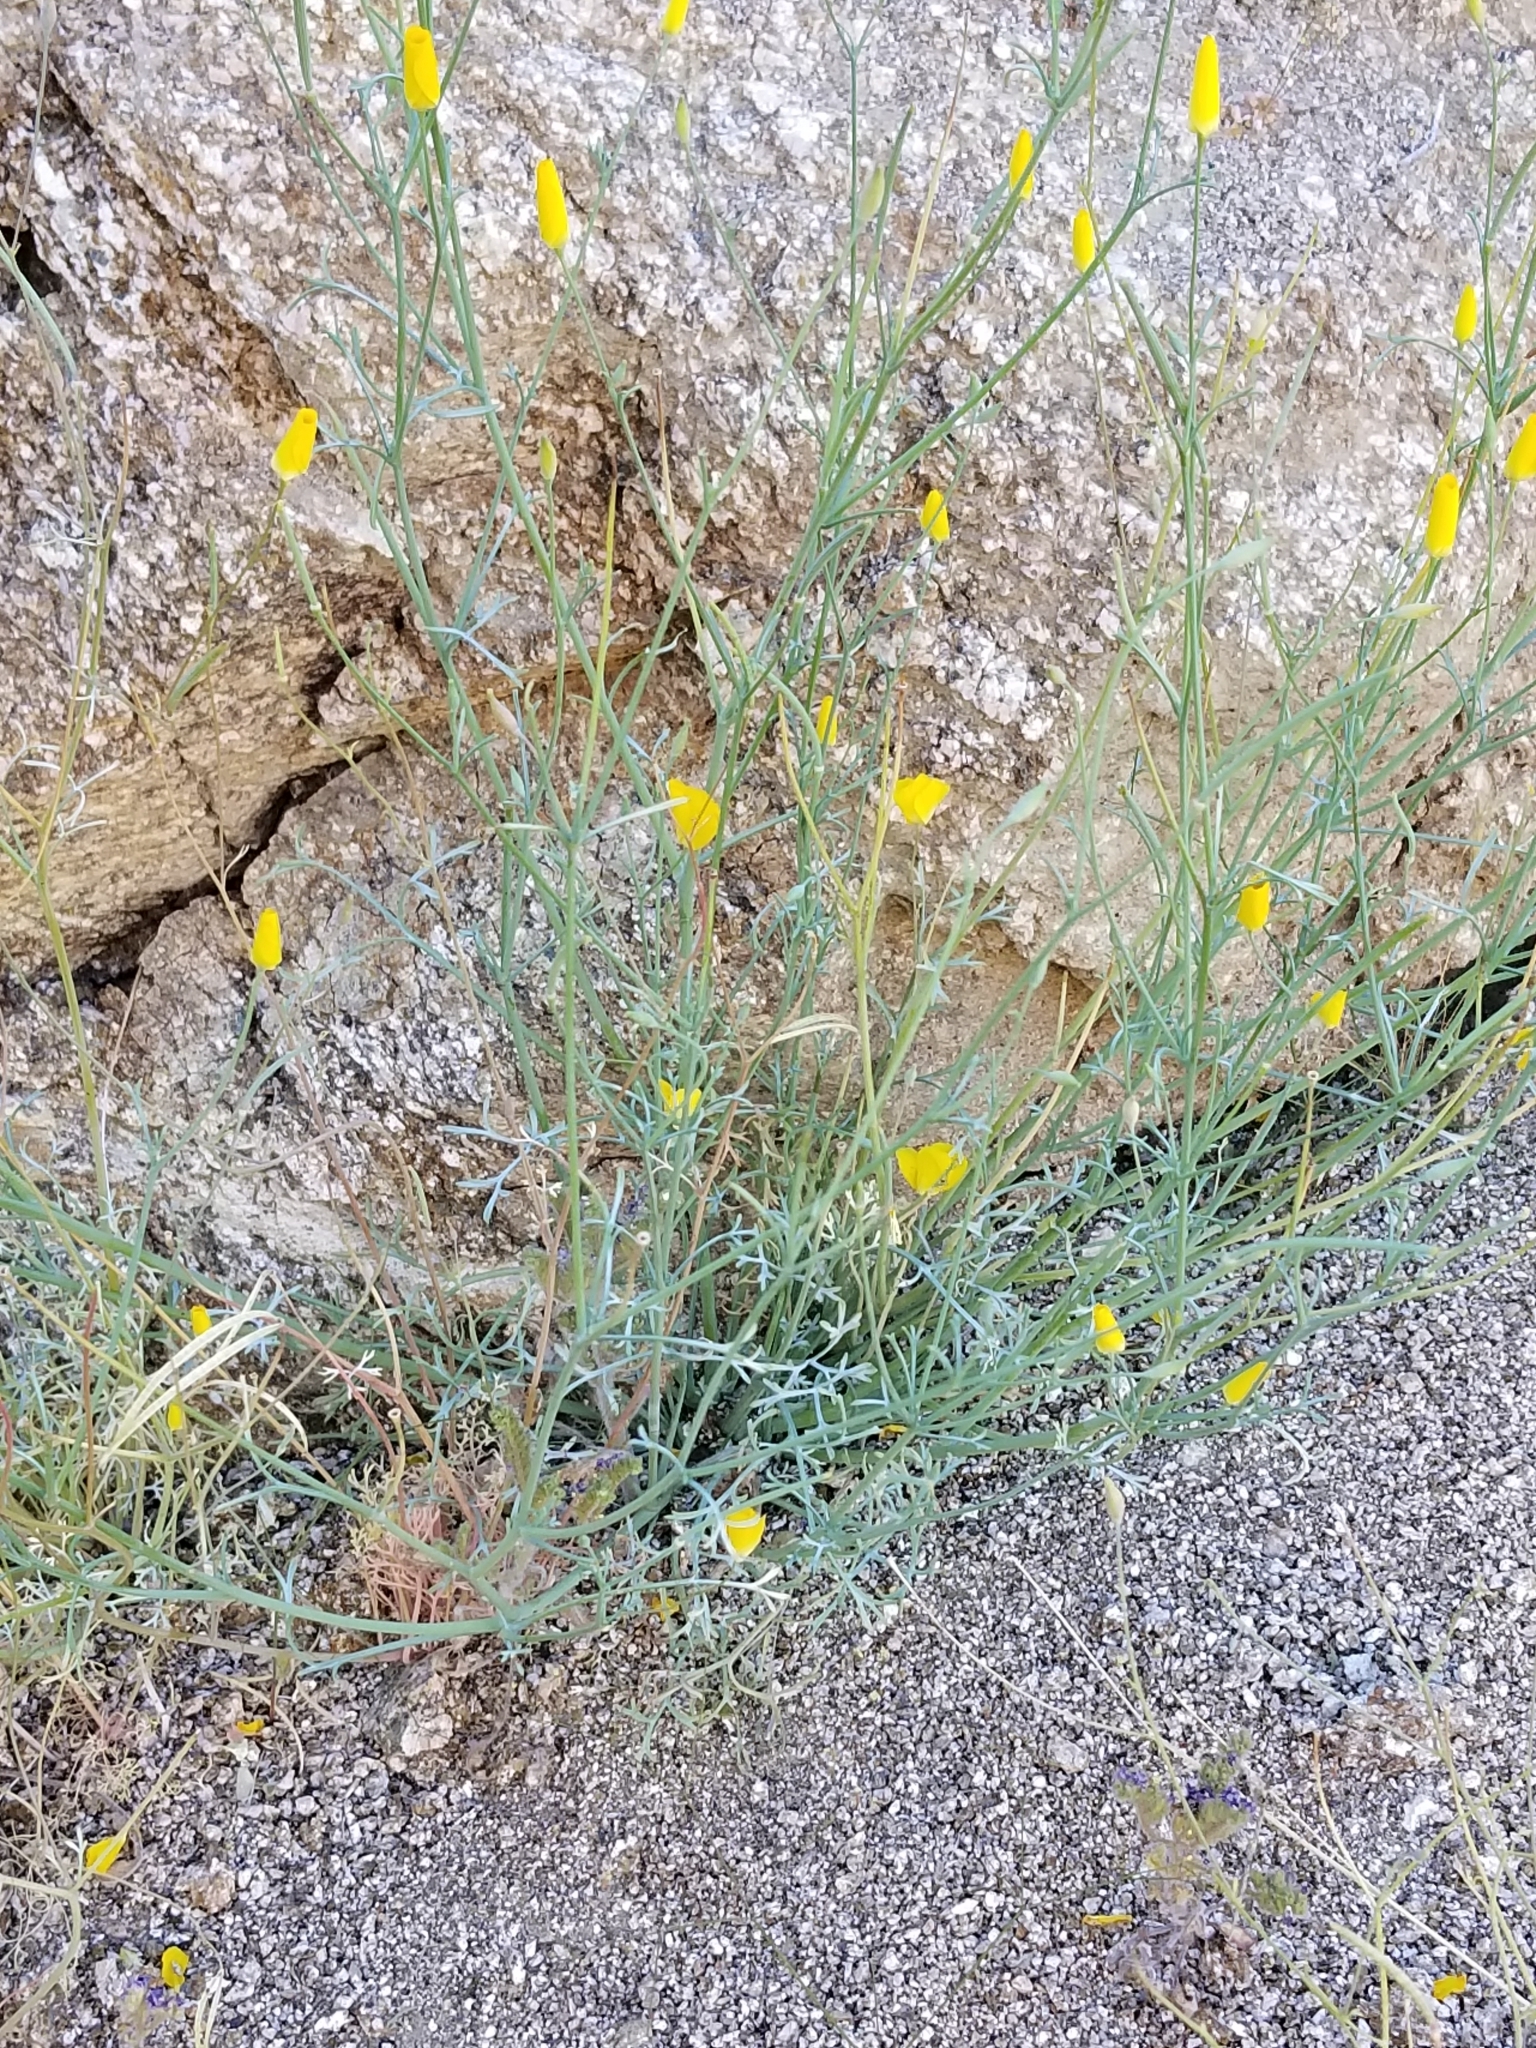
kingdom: Plantae
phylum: Tracheophyta
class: Magnoliopsida
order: Ranunculales
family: Papaveraceae
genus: Eschscholzia
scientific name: Eschscholzia parishii
